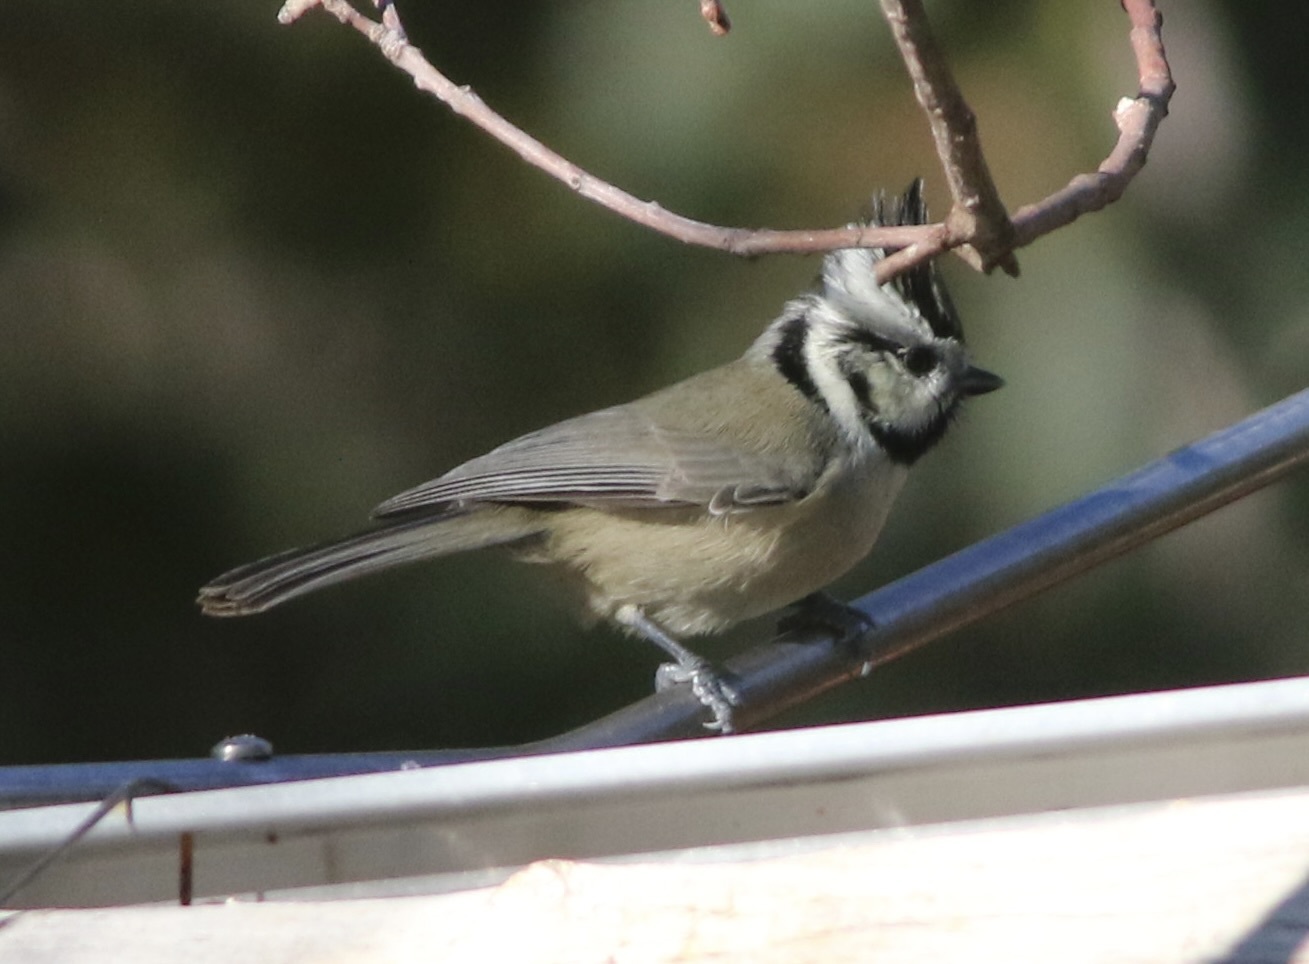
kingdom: Animalia
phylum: Chordata
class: Aves
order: Passeriformes
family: Paridae
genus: Baeolophus
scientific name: Baeolophus wollweberi
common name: Bridled titmouse
